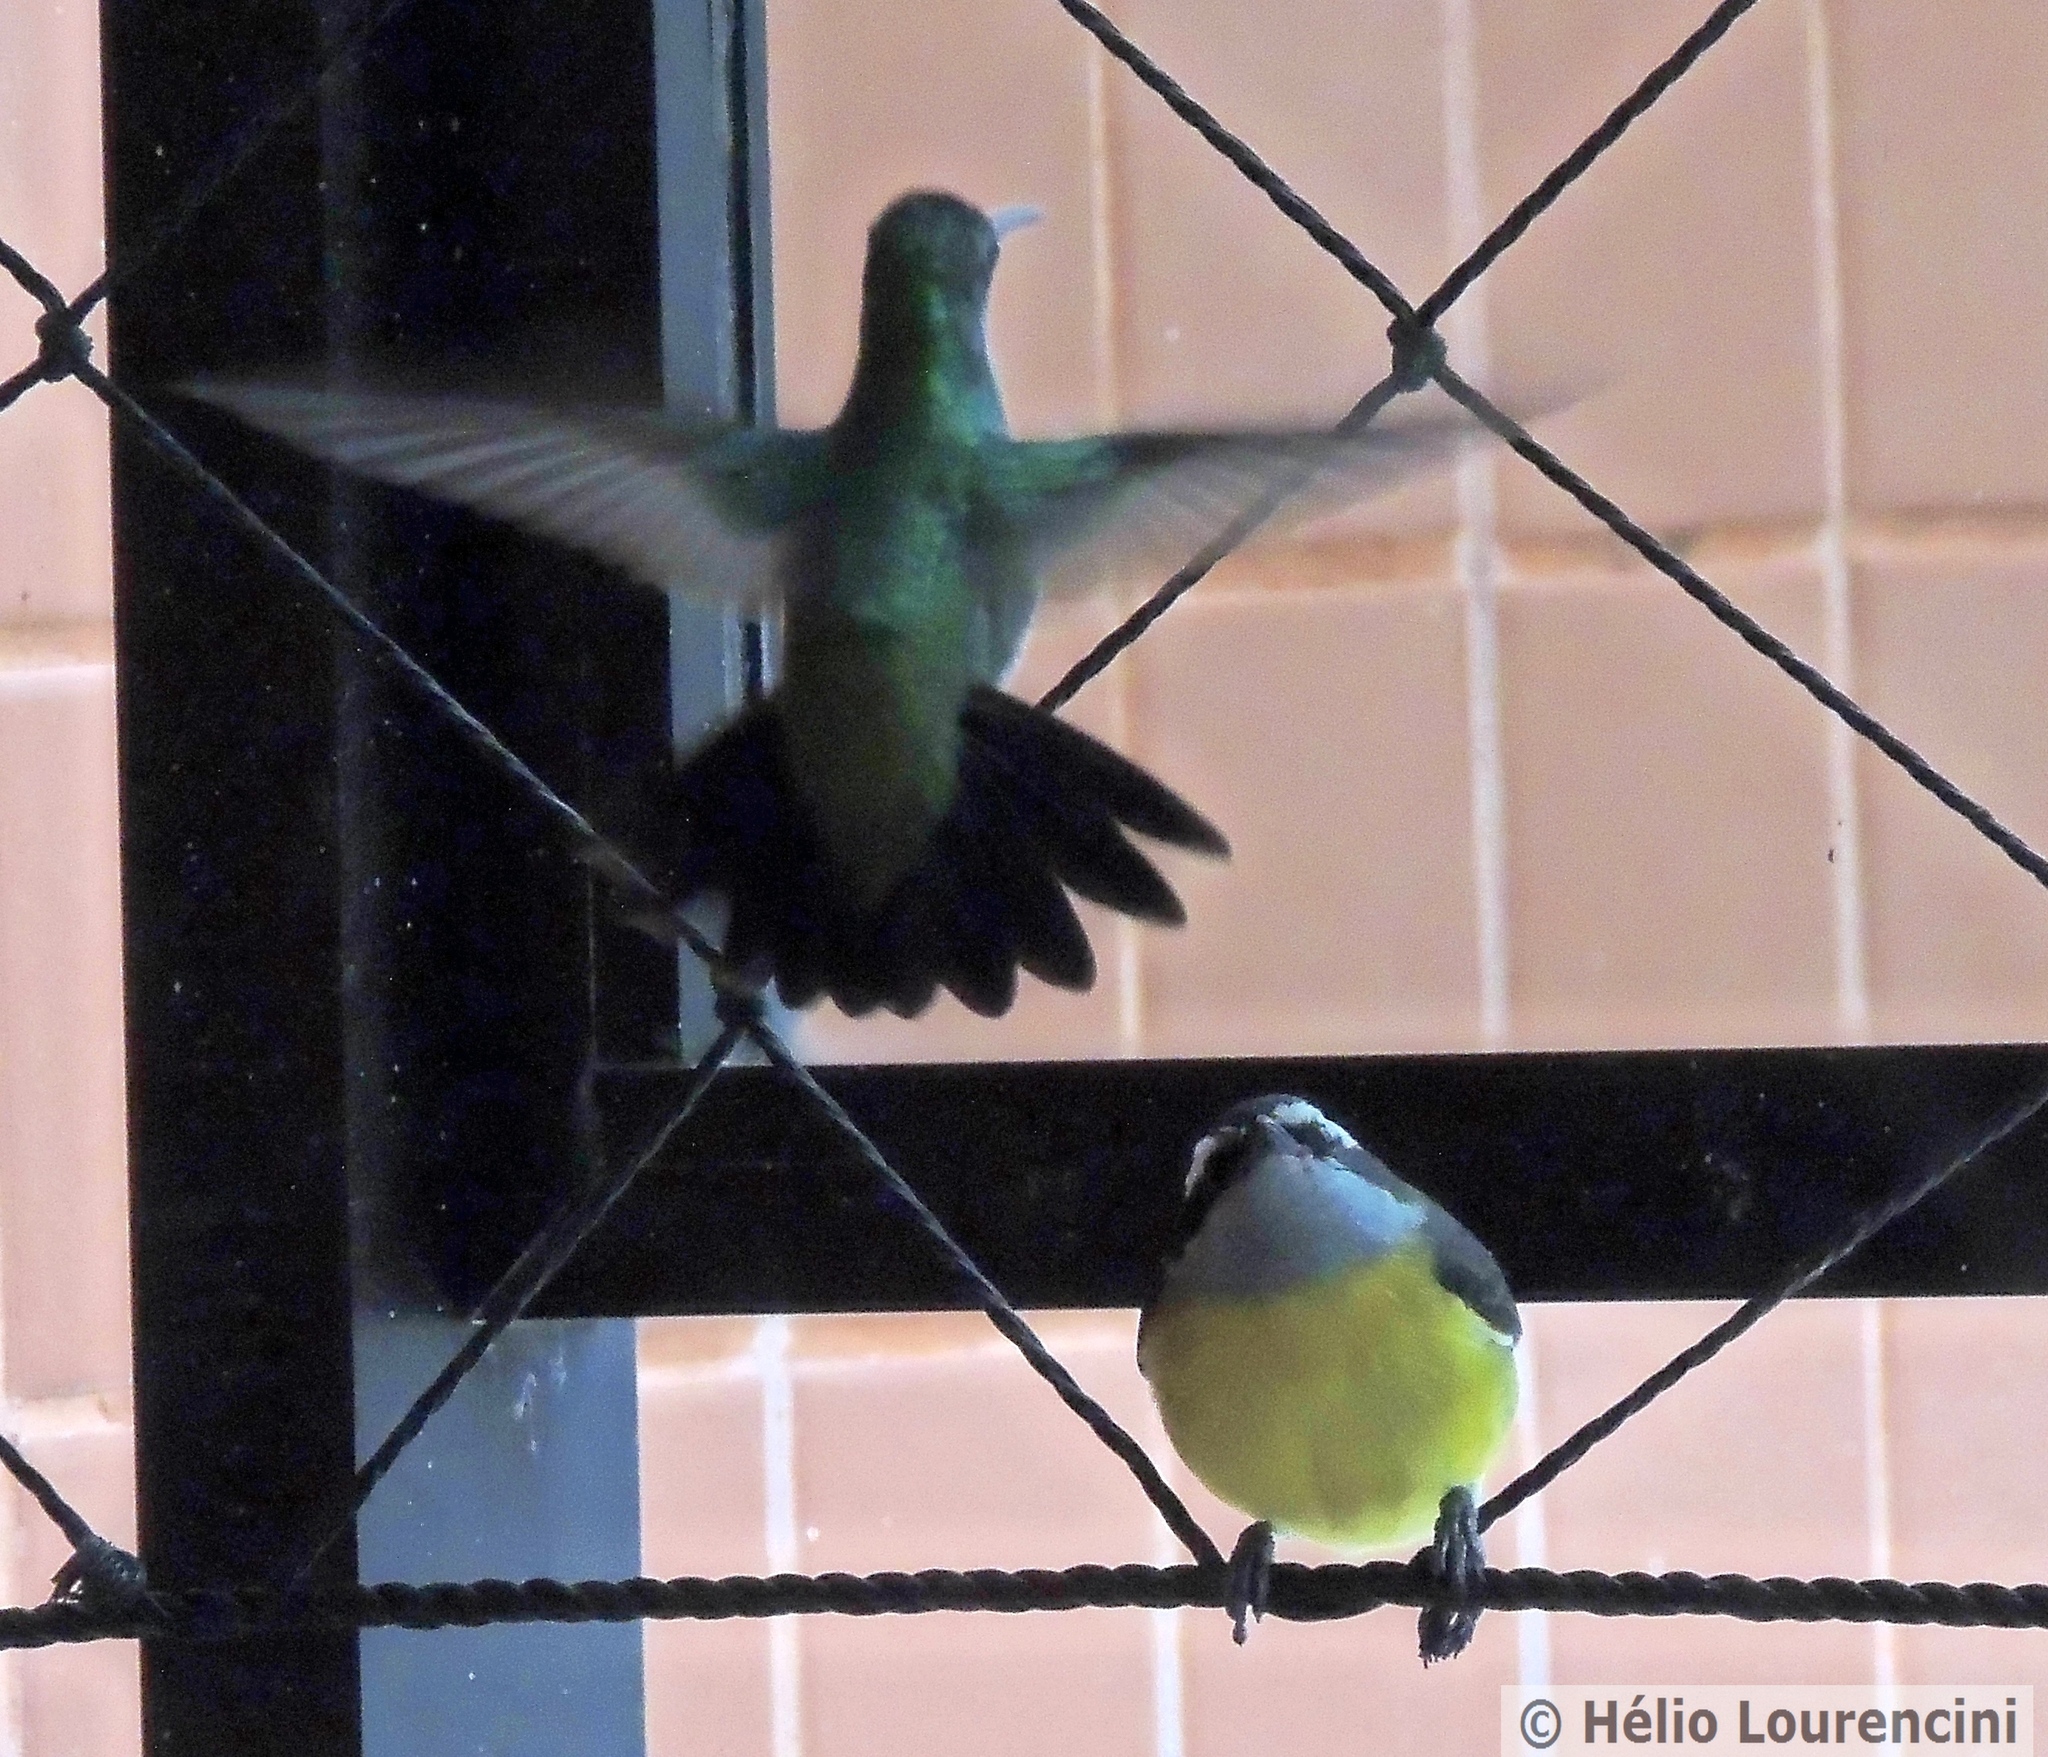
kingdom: Animalia
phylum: Chordata
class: Aves
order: Passeriformes
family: Thraupidae
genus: Coereba
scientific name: Coereba flaveola
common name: Bananaquit
